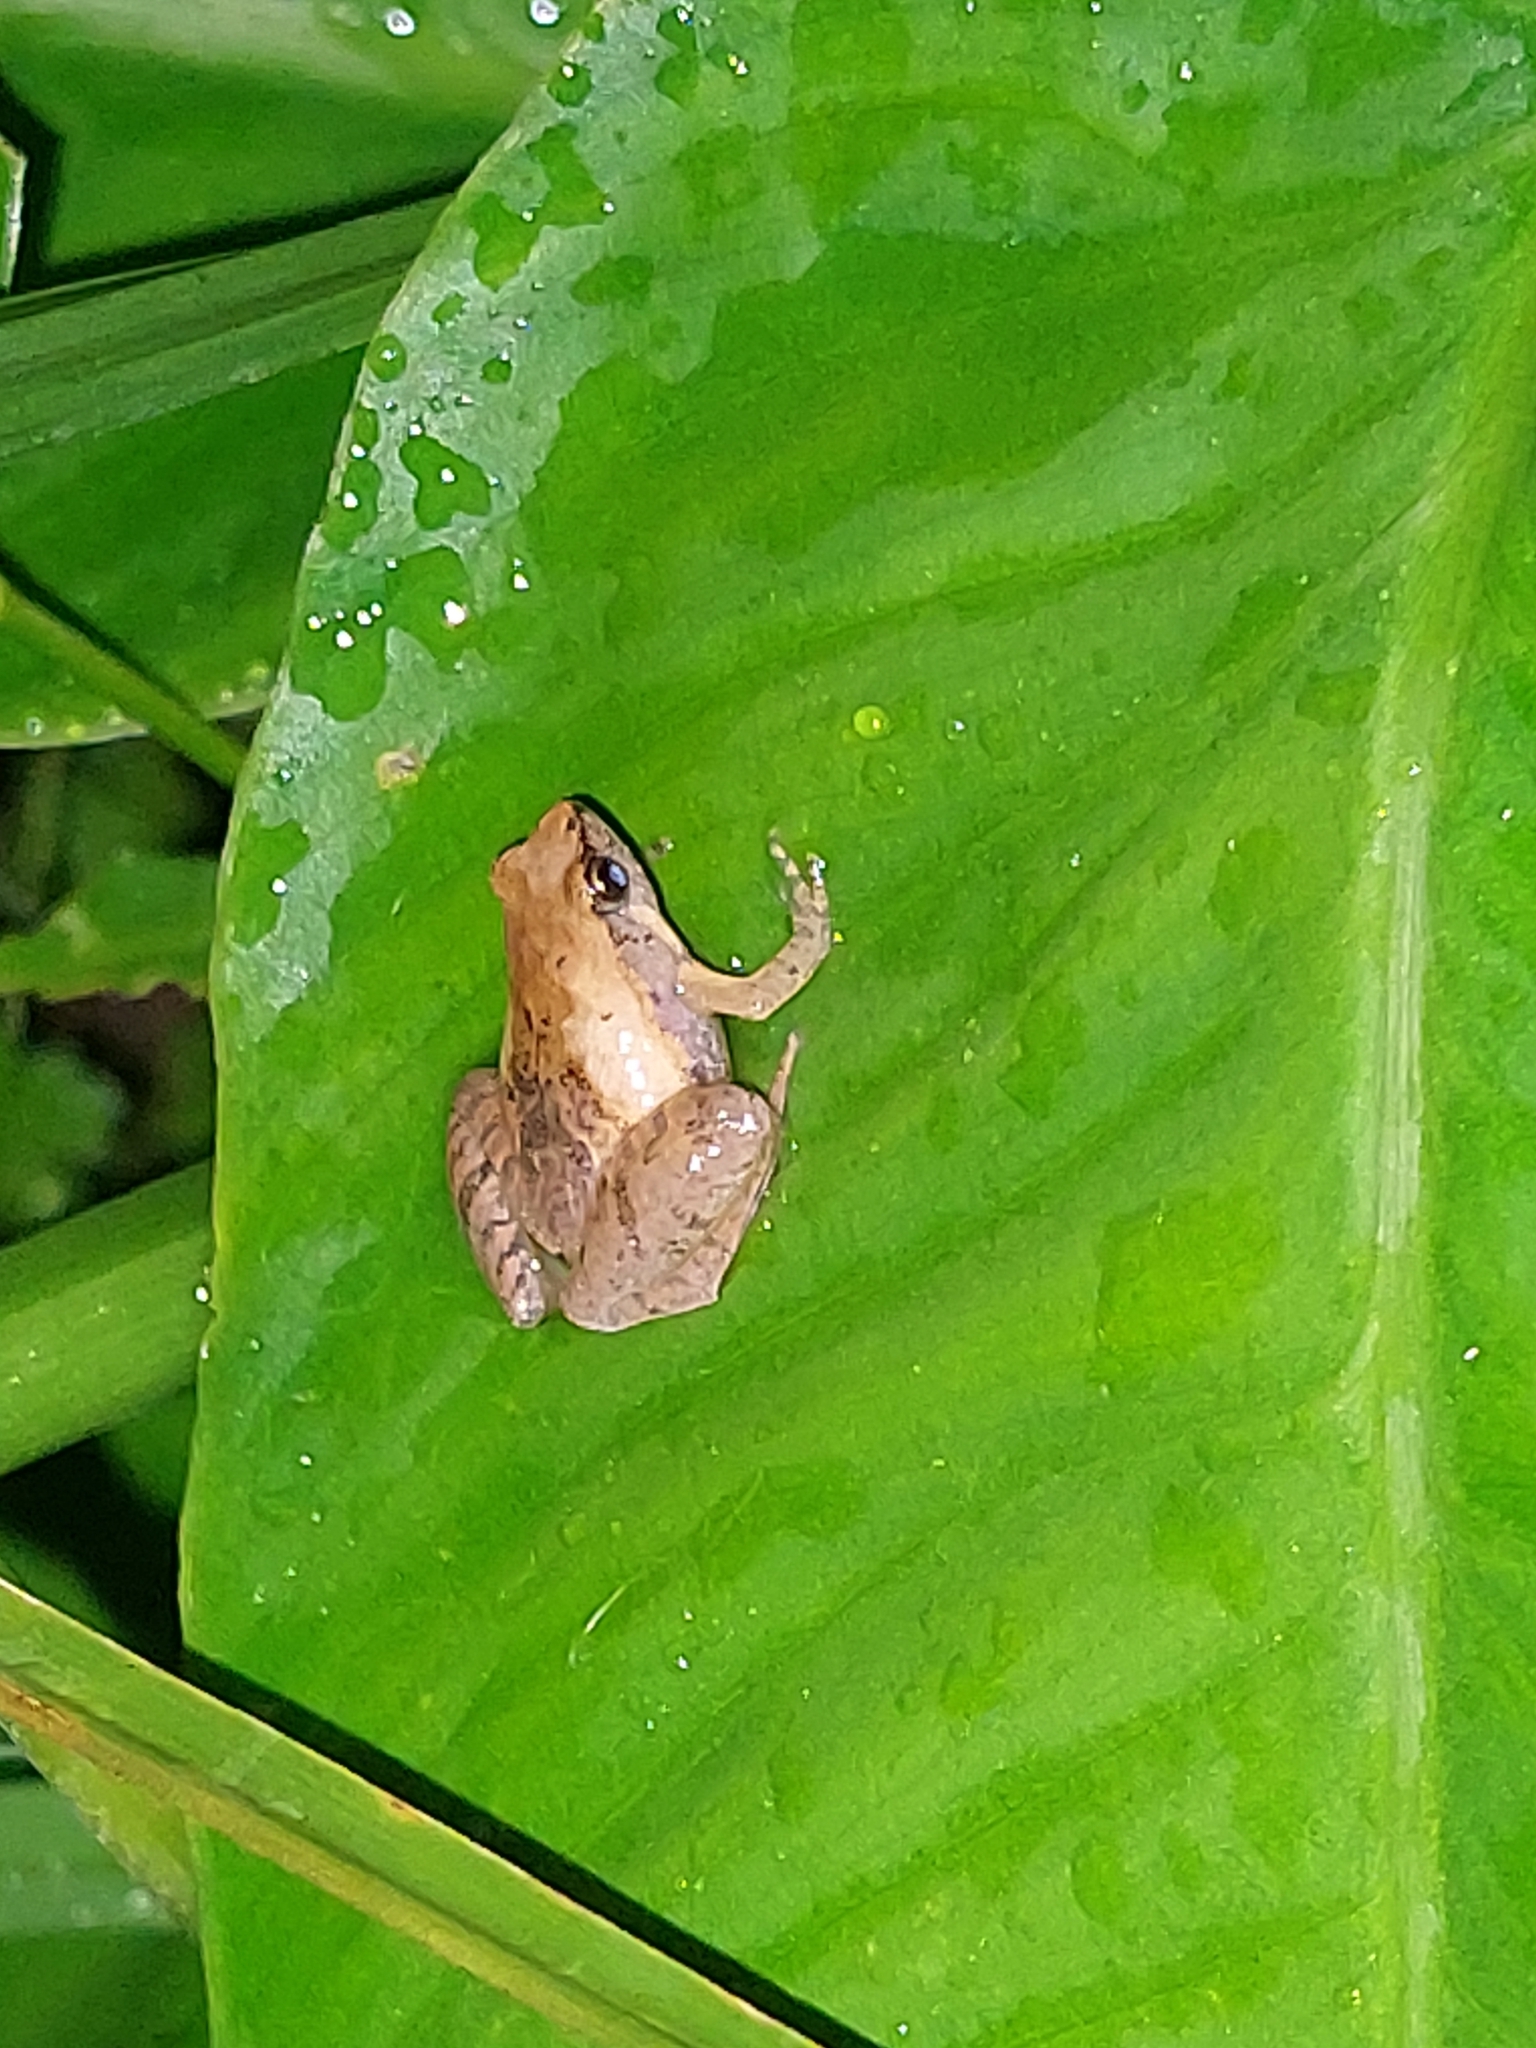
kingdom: Animalia
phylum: Chordata
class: Amphibia
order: Anura
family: Microhylidae
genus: Microhyla
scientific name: Microhyla palmipes
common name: Palmated narrow-mouthed frog,palmated chorus frog
